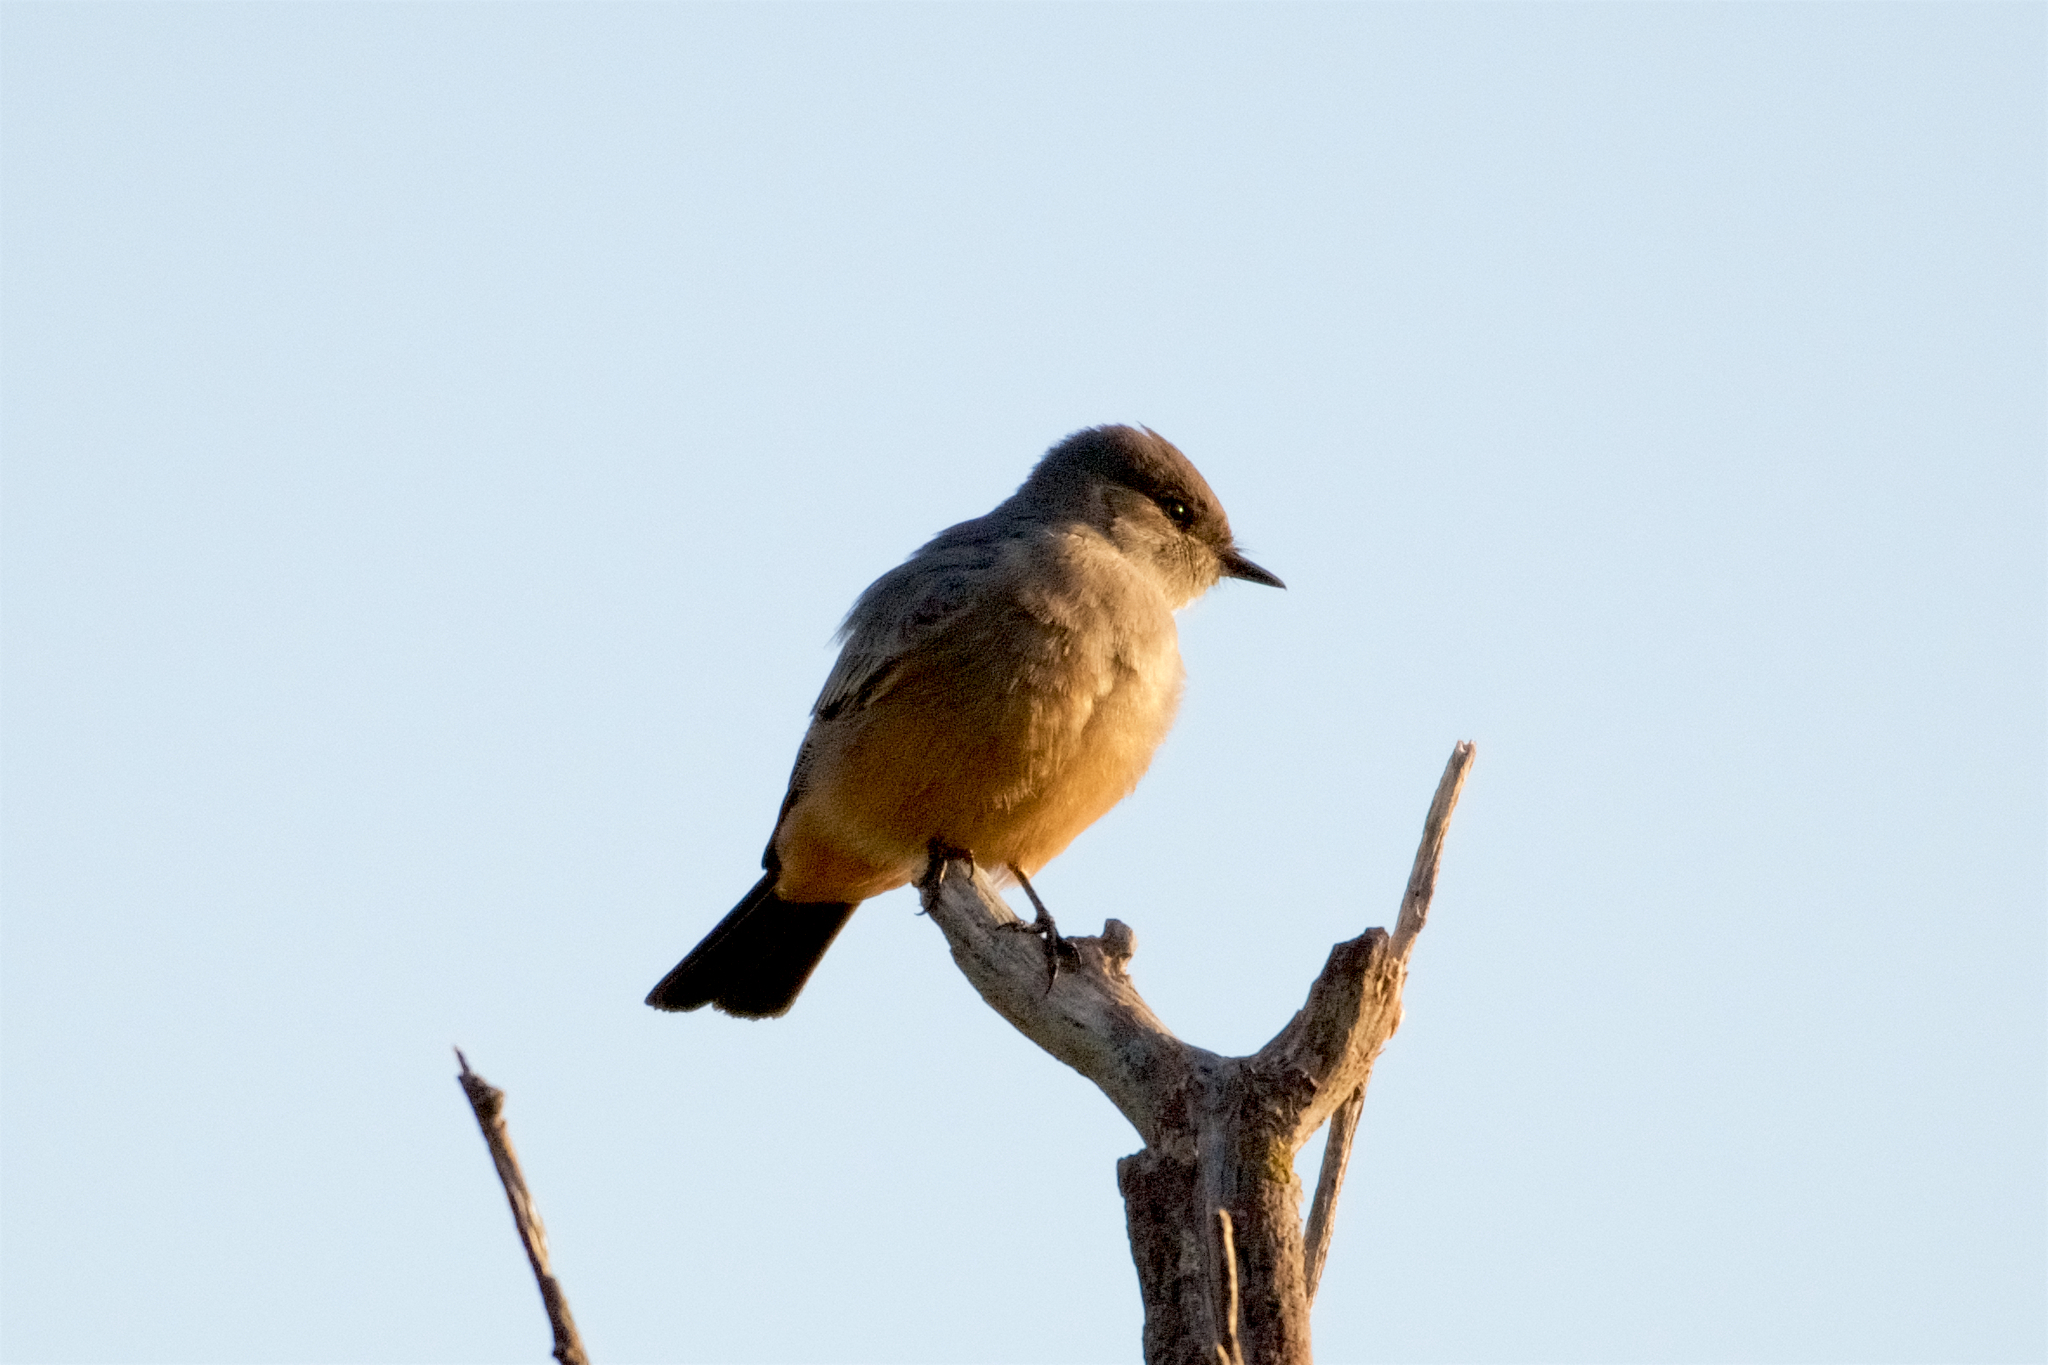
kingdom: Animalia
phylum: Chordata
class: Aves
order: Passeriformes
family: Tyrannidae
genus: Sayornis
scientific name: Sayornis saya
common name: Say's phoebe
